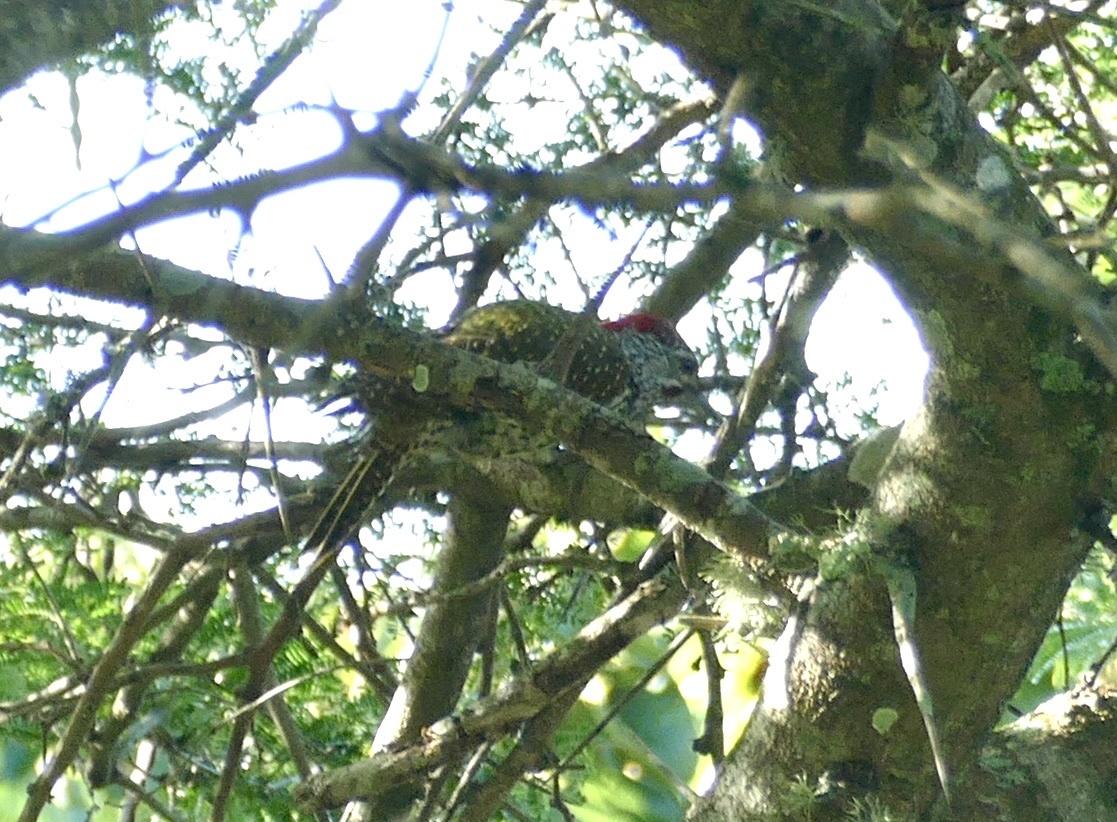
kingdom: Animalia
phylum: Chordata
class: Aves
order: Piciformes
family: Picidae
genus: Campethera
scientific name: Campethera abingoni
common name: Golden-tailed woodpecker
